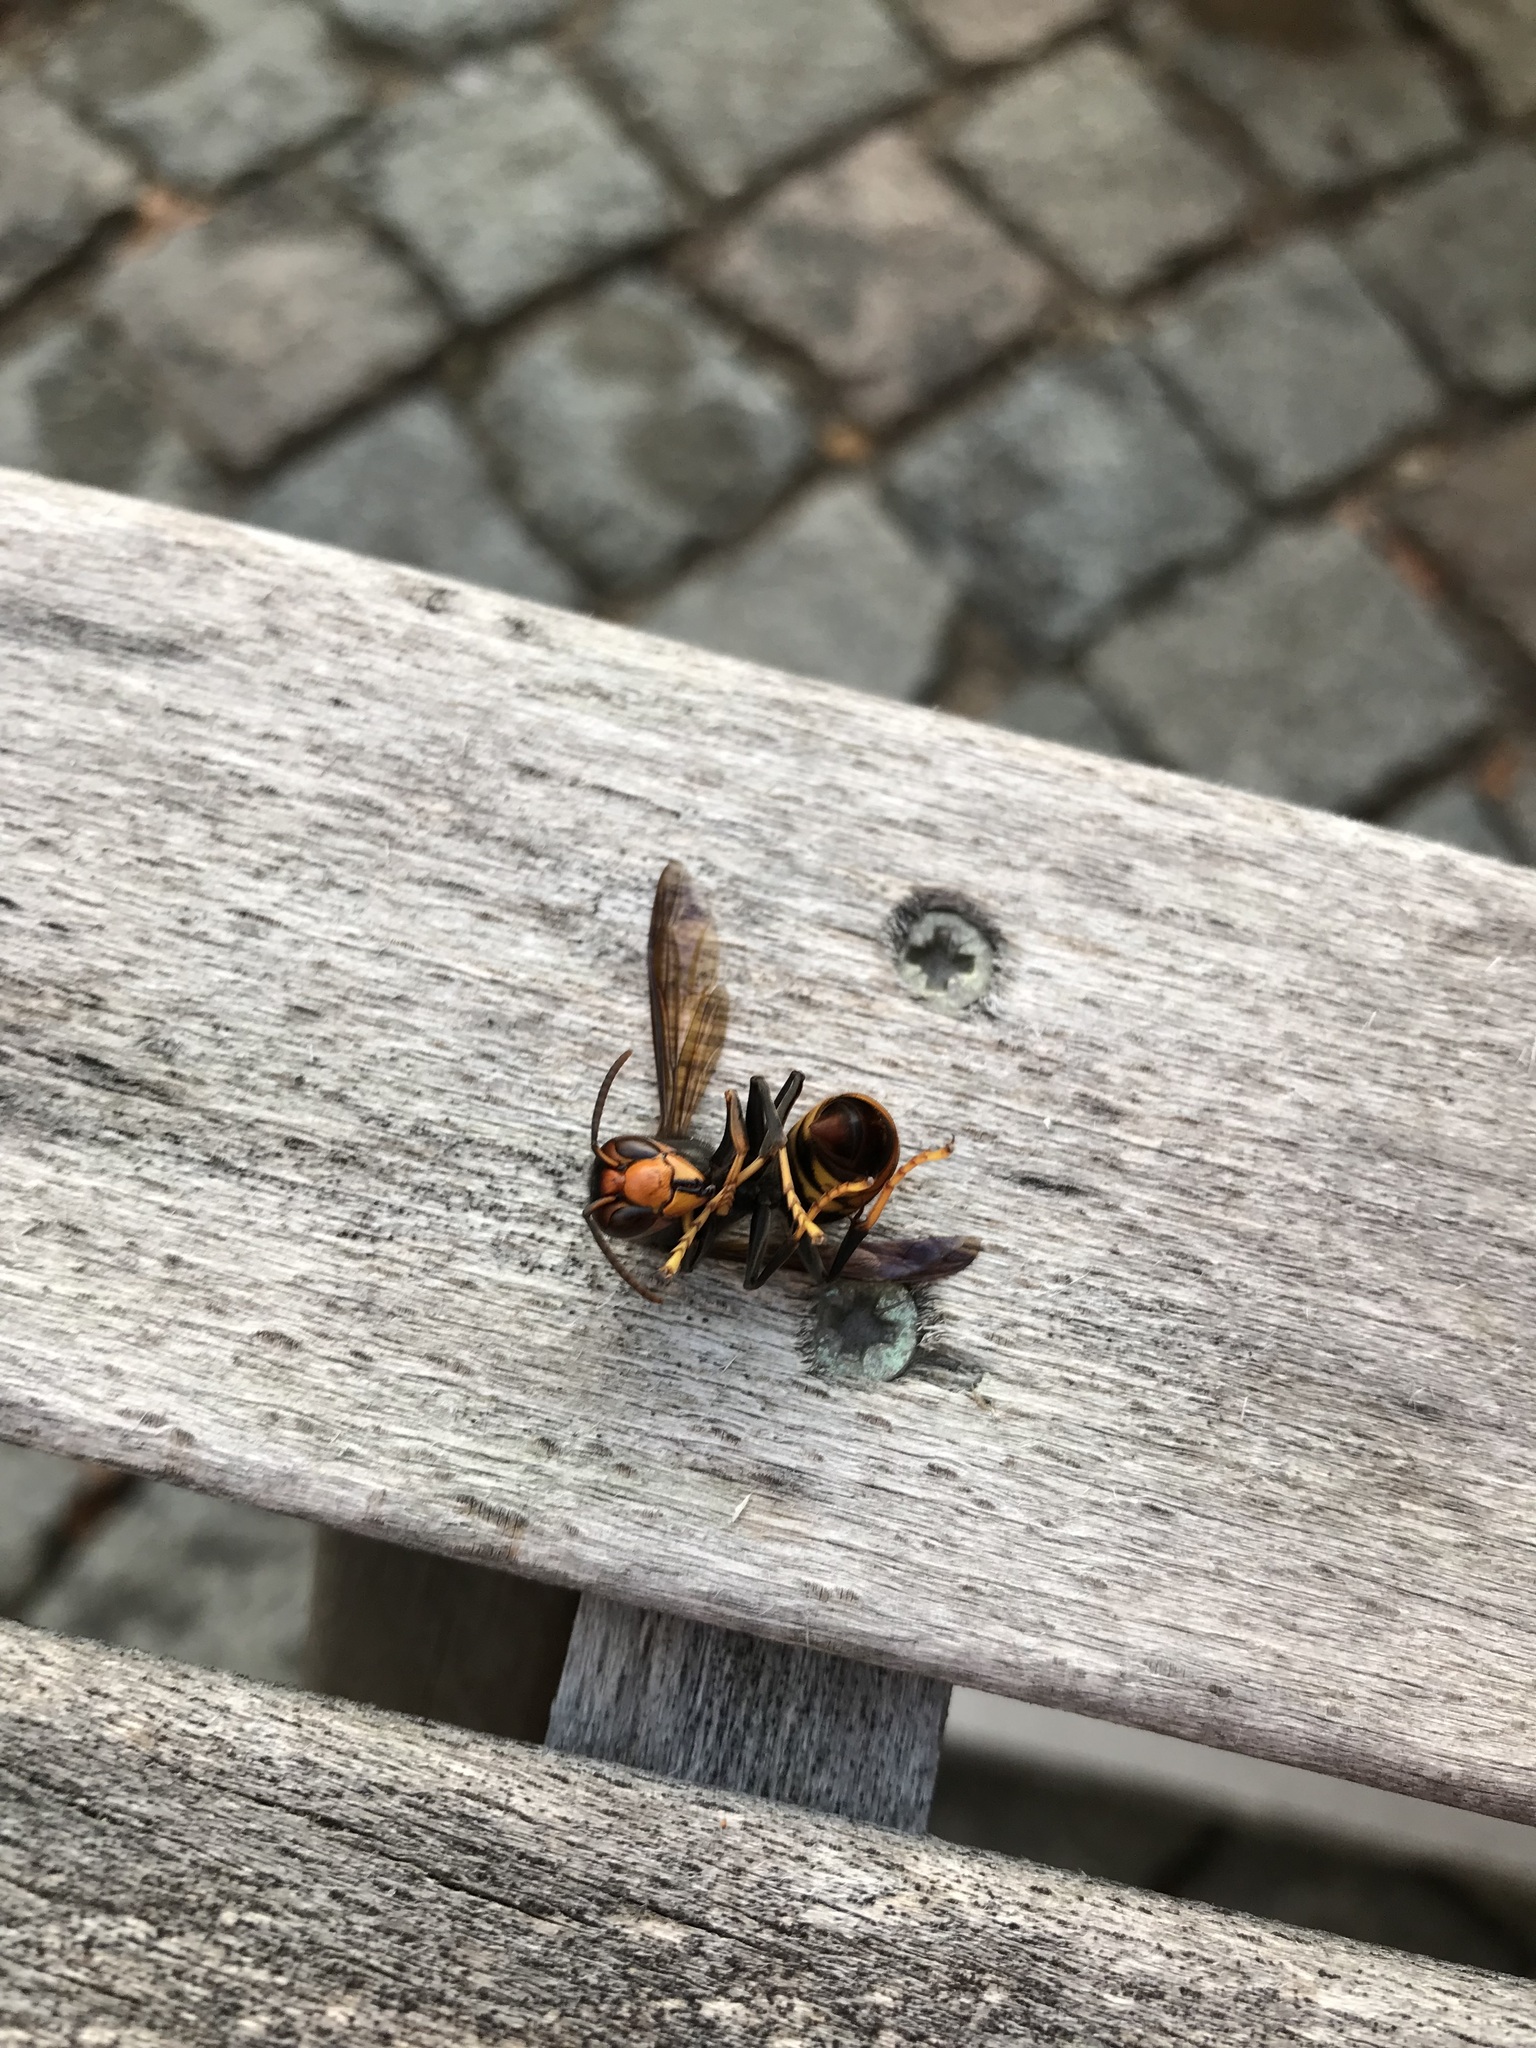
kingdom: Animalia
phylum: Arthropoda
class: Insecta
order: Hymenoptera
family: Vespidae
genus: Vespa
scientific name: Vespa velutina
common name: Asian hornet
